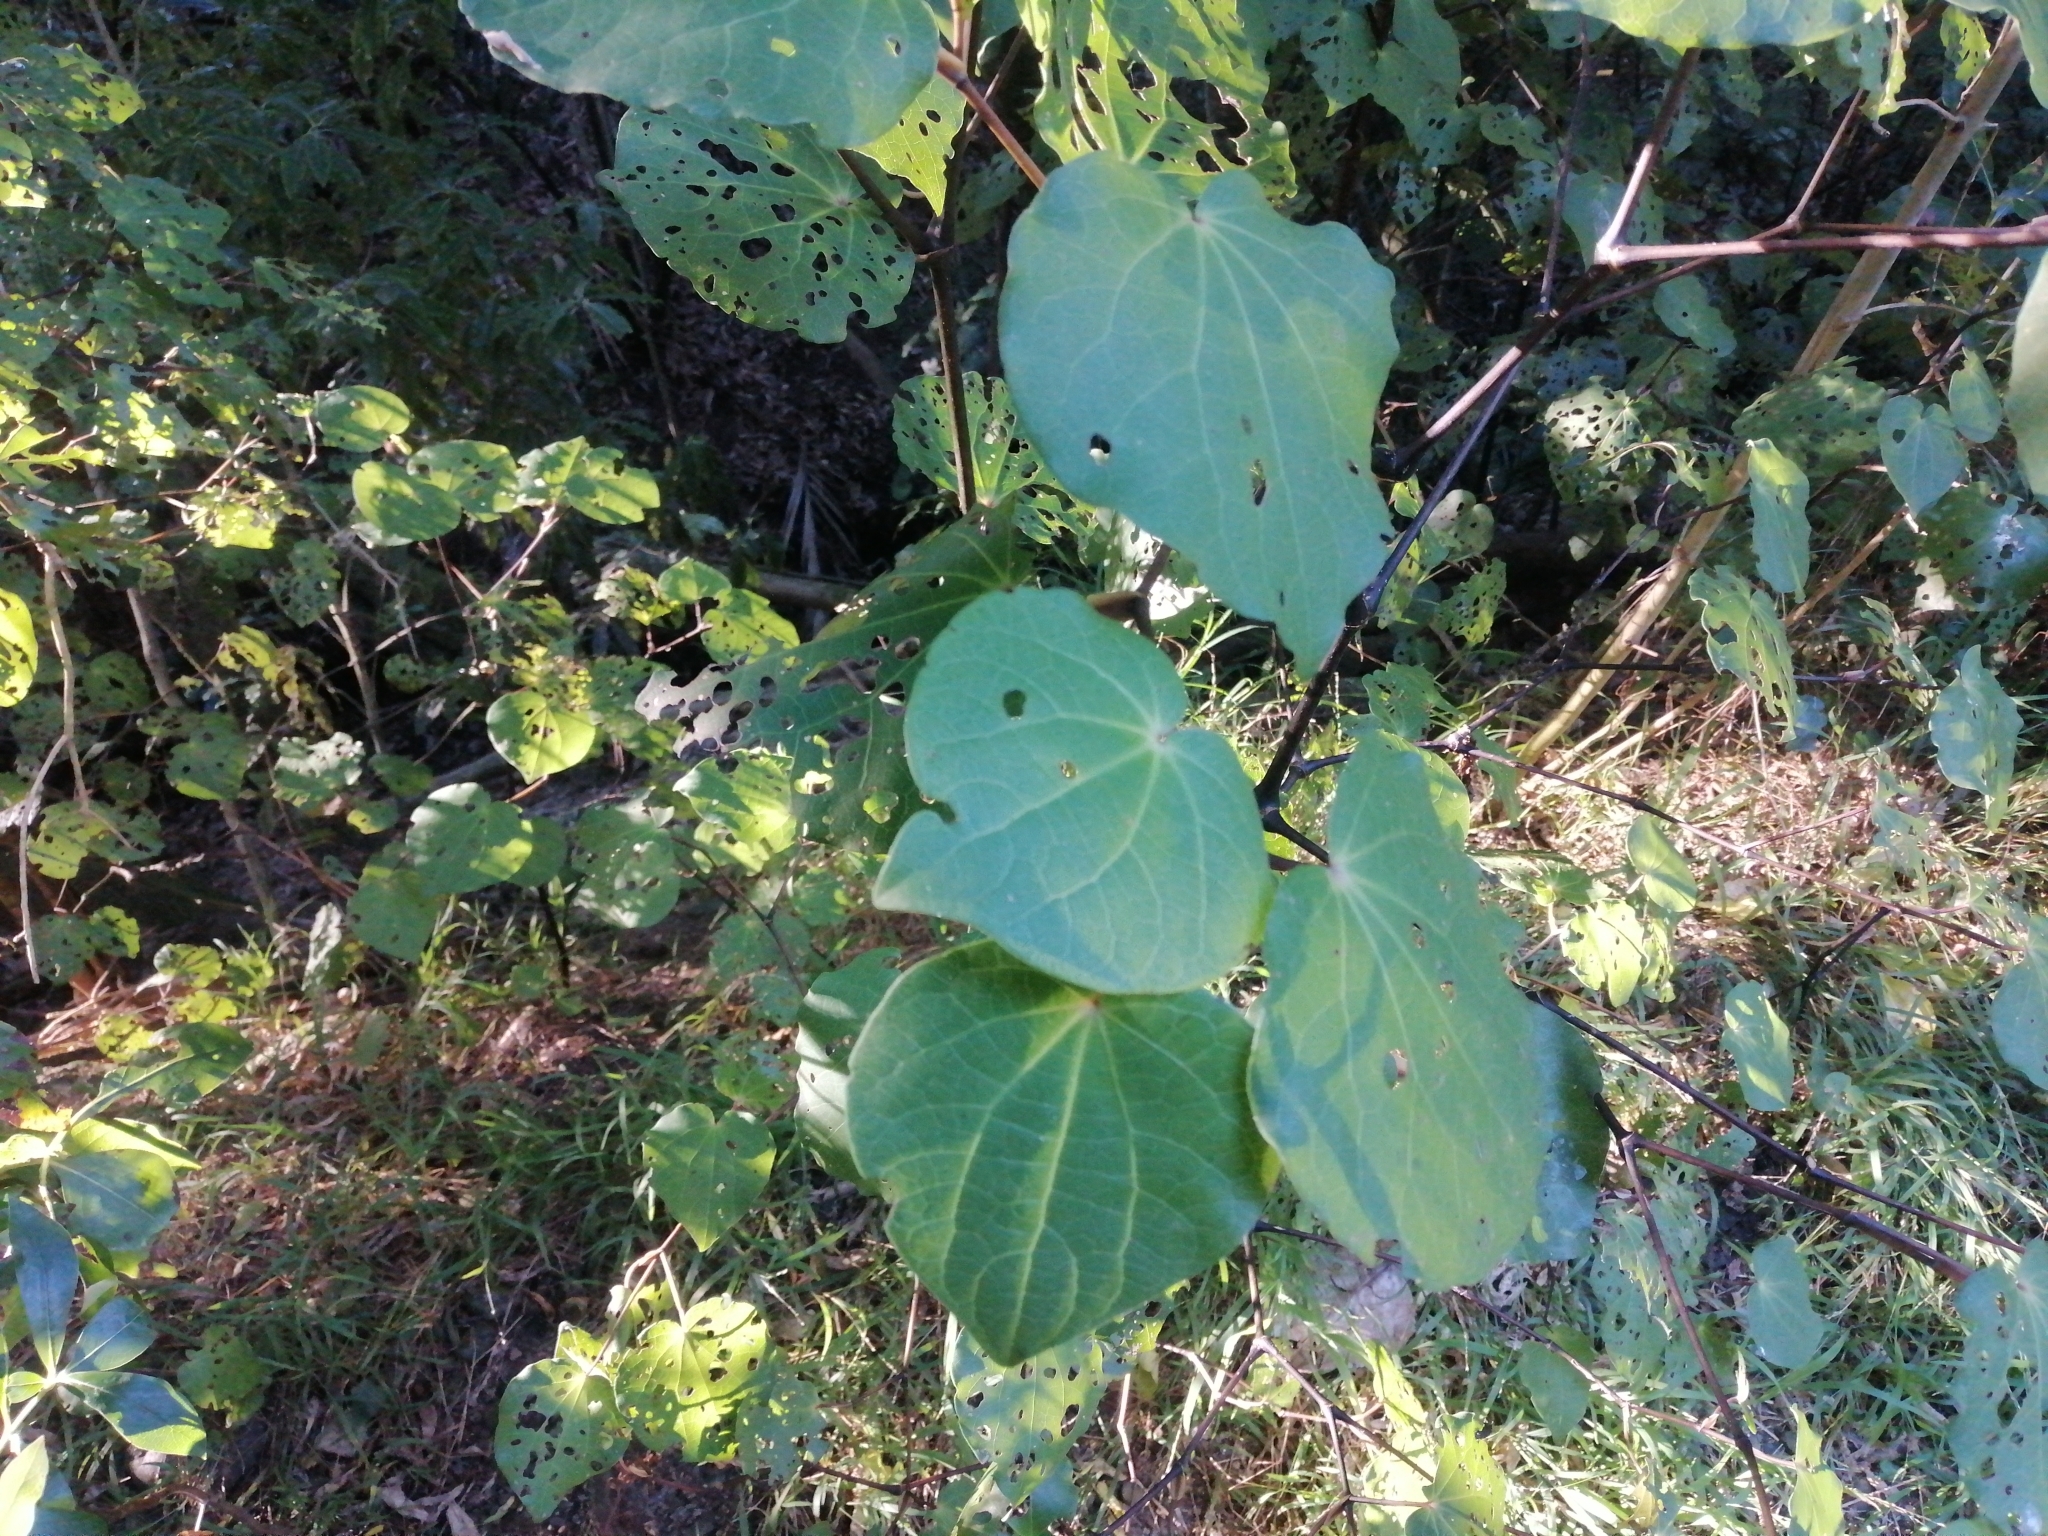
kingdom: Plantae
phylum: Tracheophyta
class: Magnoliopsida
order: Piperales
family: Piperaceae
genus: Macropiper
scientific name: Macropiper excelsum
